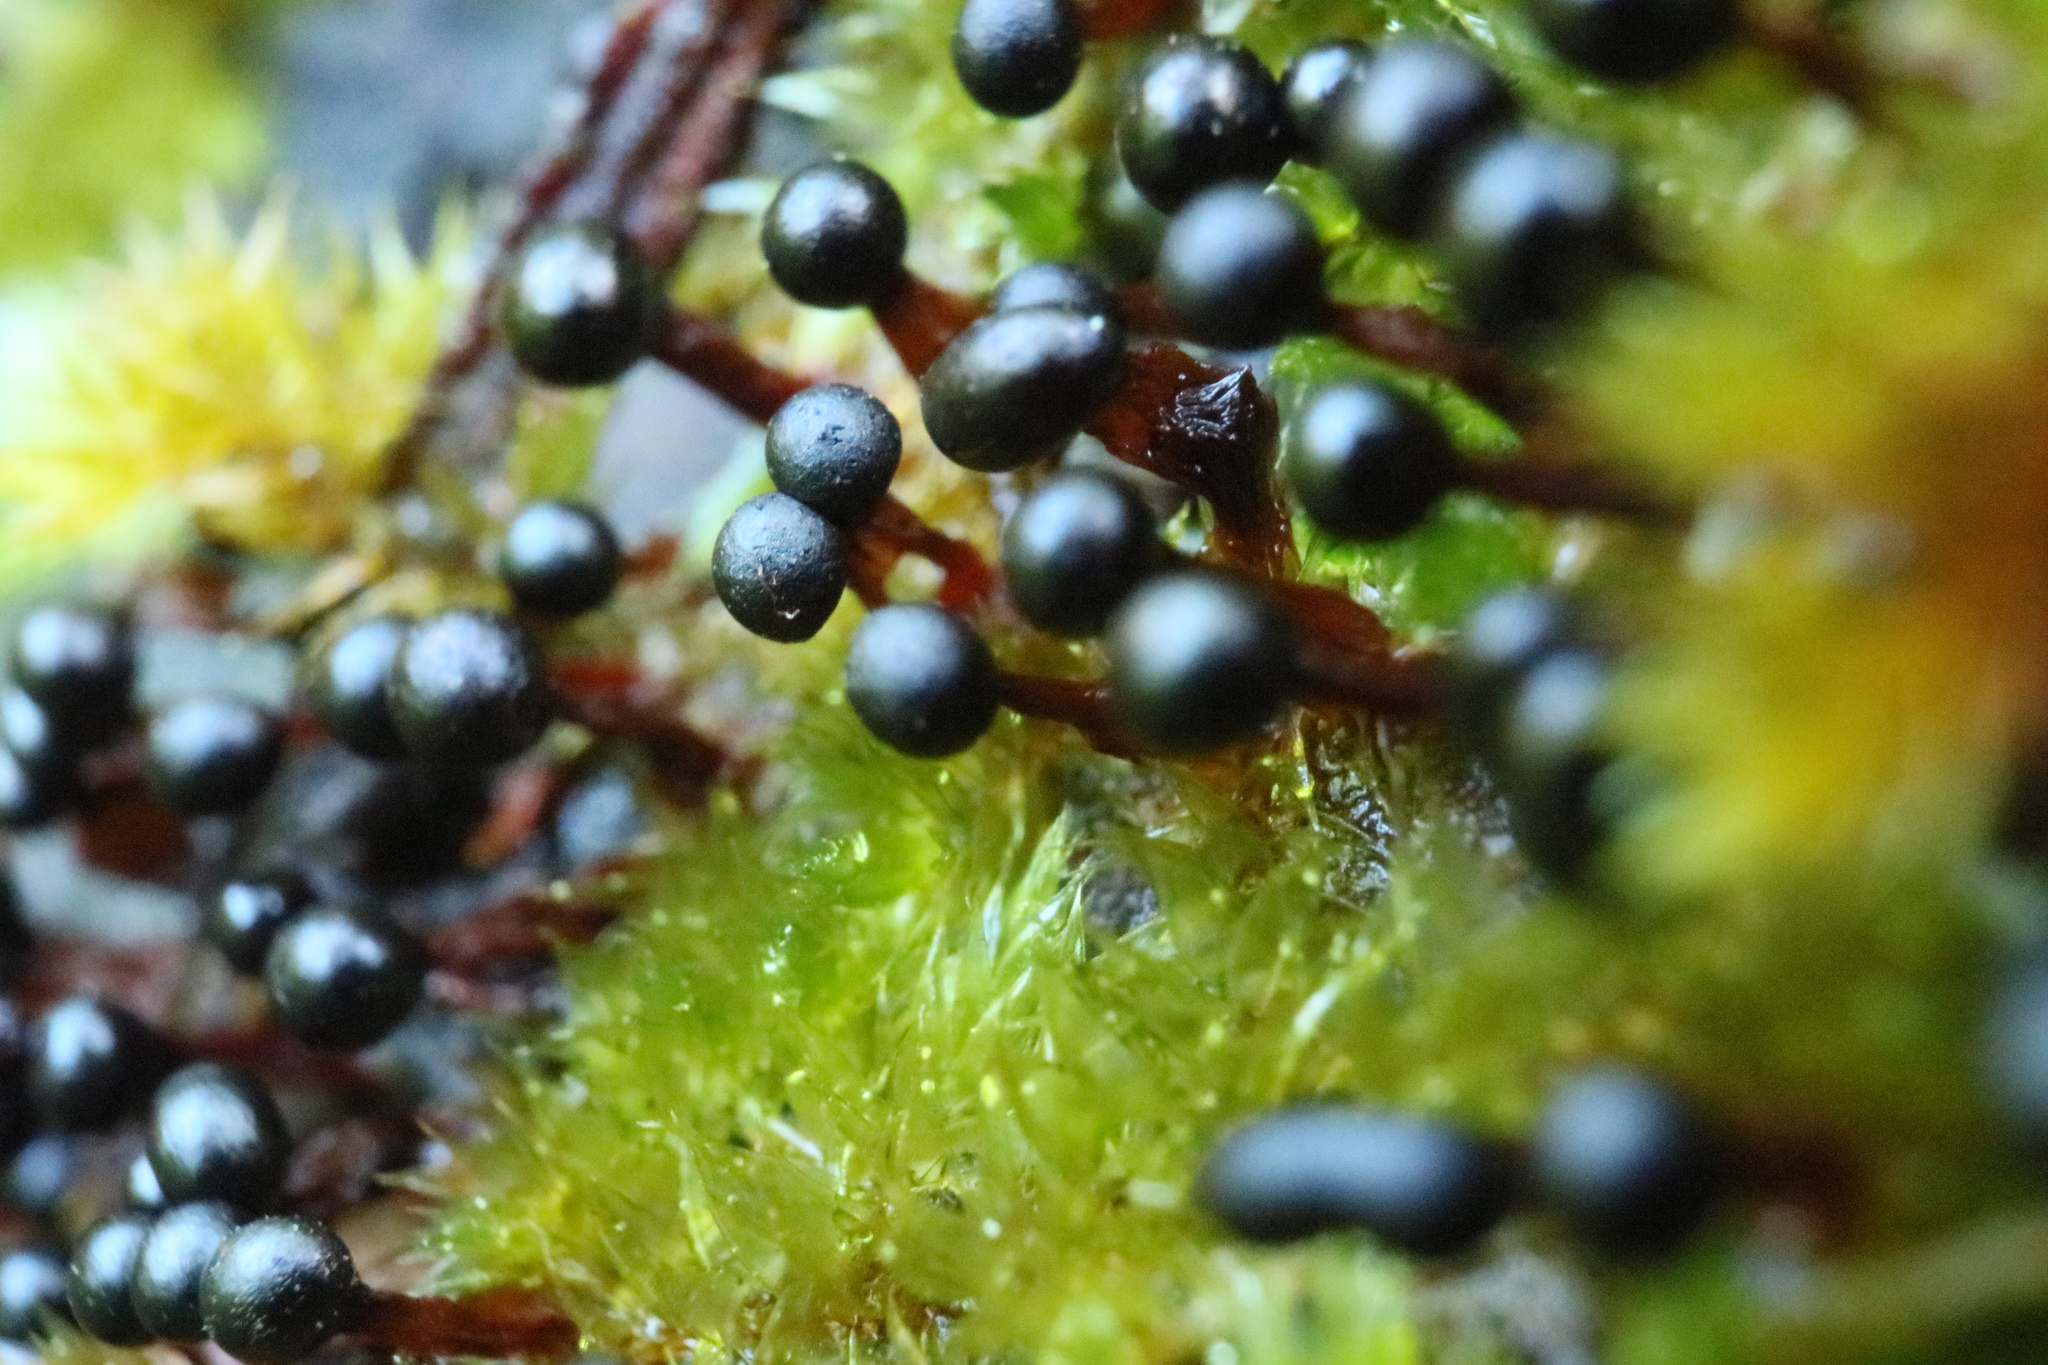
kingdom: Protozoa
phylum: Mycetozoa
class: Myxomycetes
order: Trichiales
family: Trichiaceae
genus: Metatrichia
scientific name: Metatrichia floriformis
